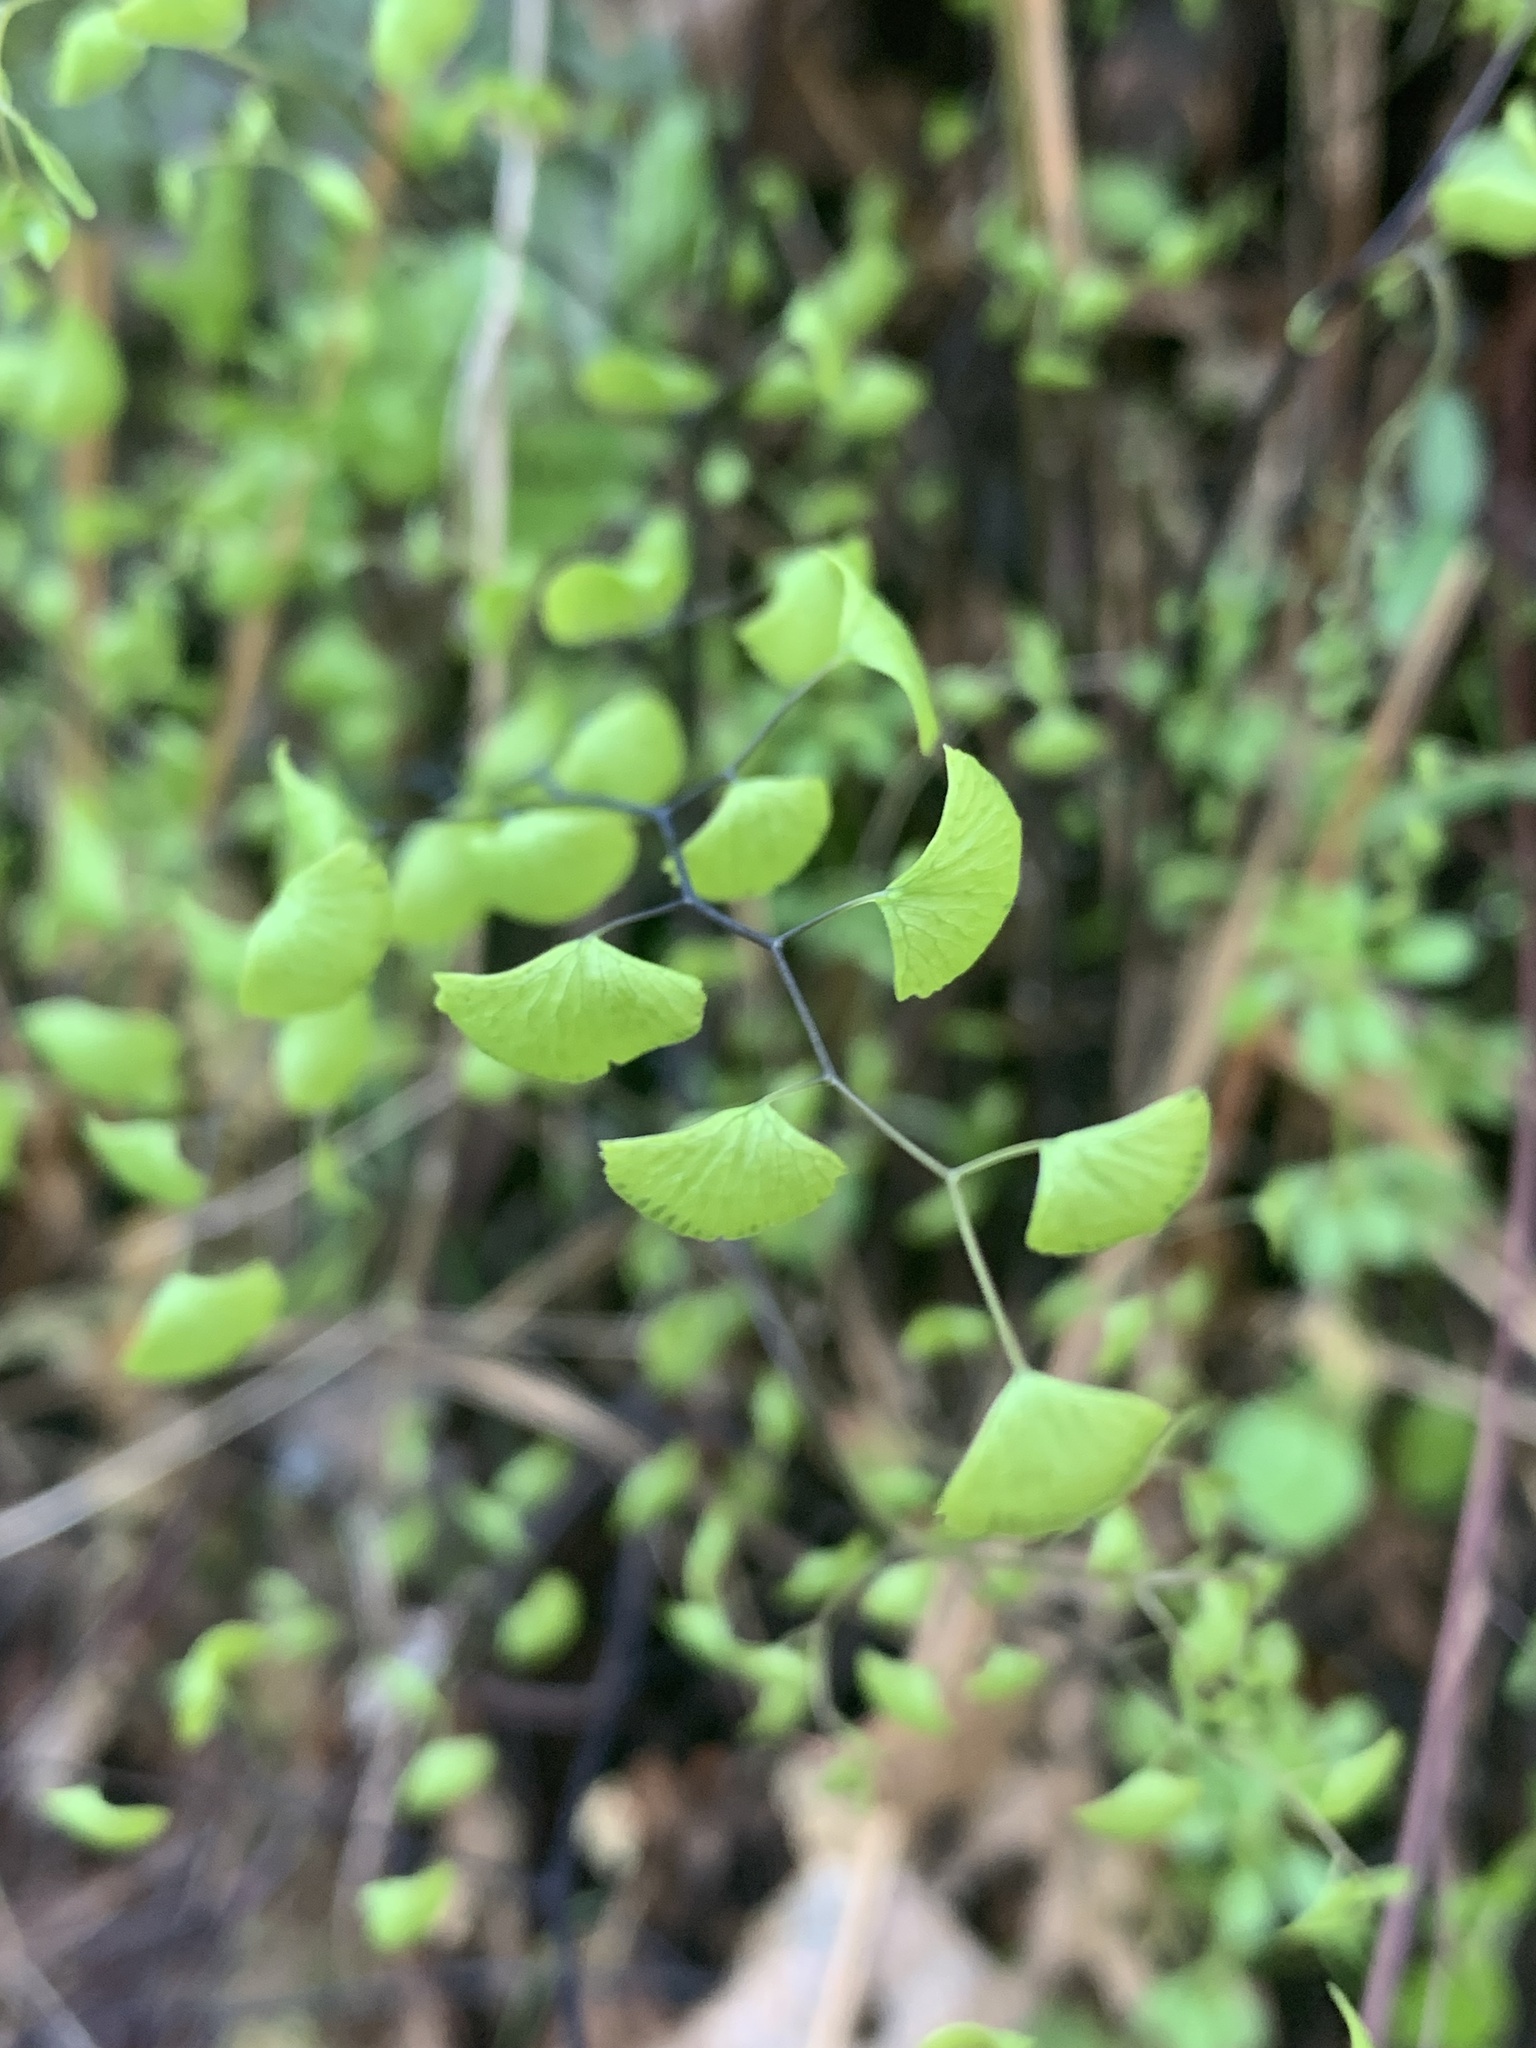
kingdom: Plantae
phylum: Tracheophyta
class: Polypodiopsida
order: Polypodiales
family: Pteridaceae
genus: Adiantum
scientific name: Adiantum jordanii
